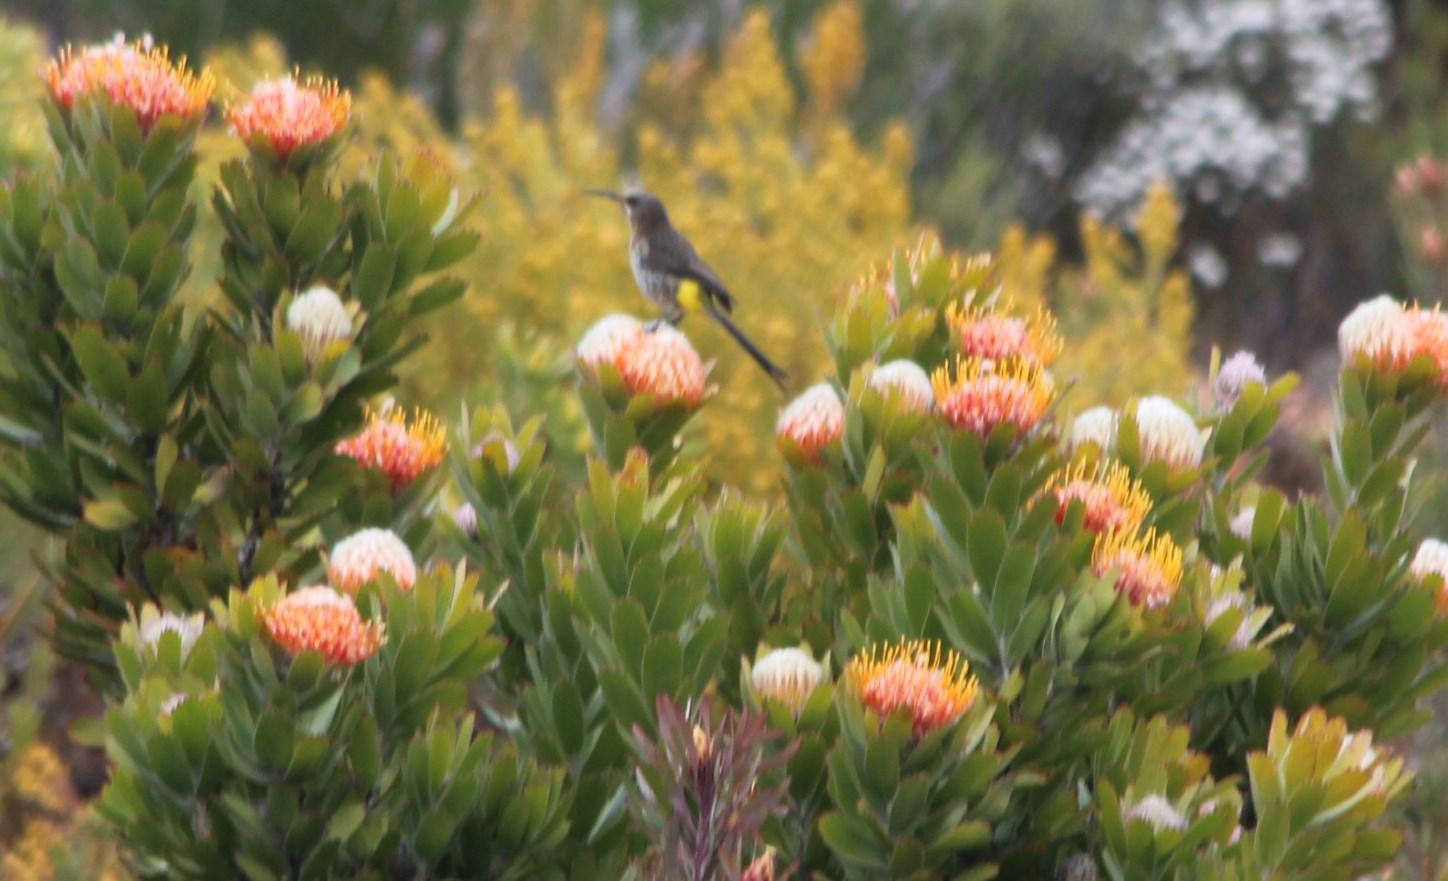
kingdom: Animalia
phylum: Chordata
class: Aves
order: Passeriformes
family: Promeropidae
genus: Promerops
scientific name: Promerops cafer
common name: Cape sugarbird
